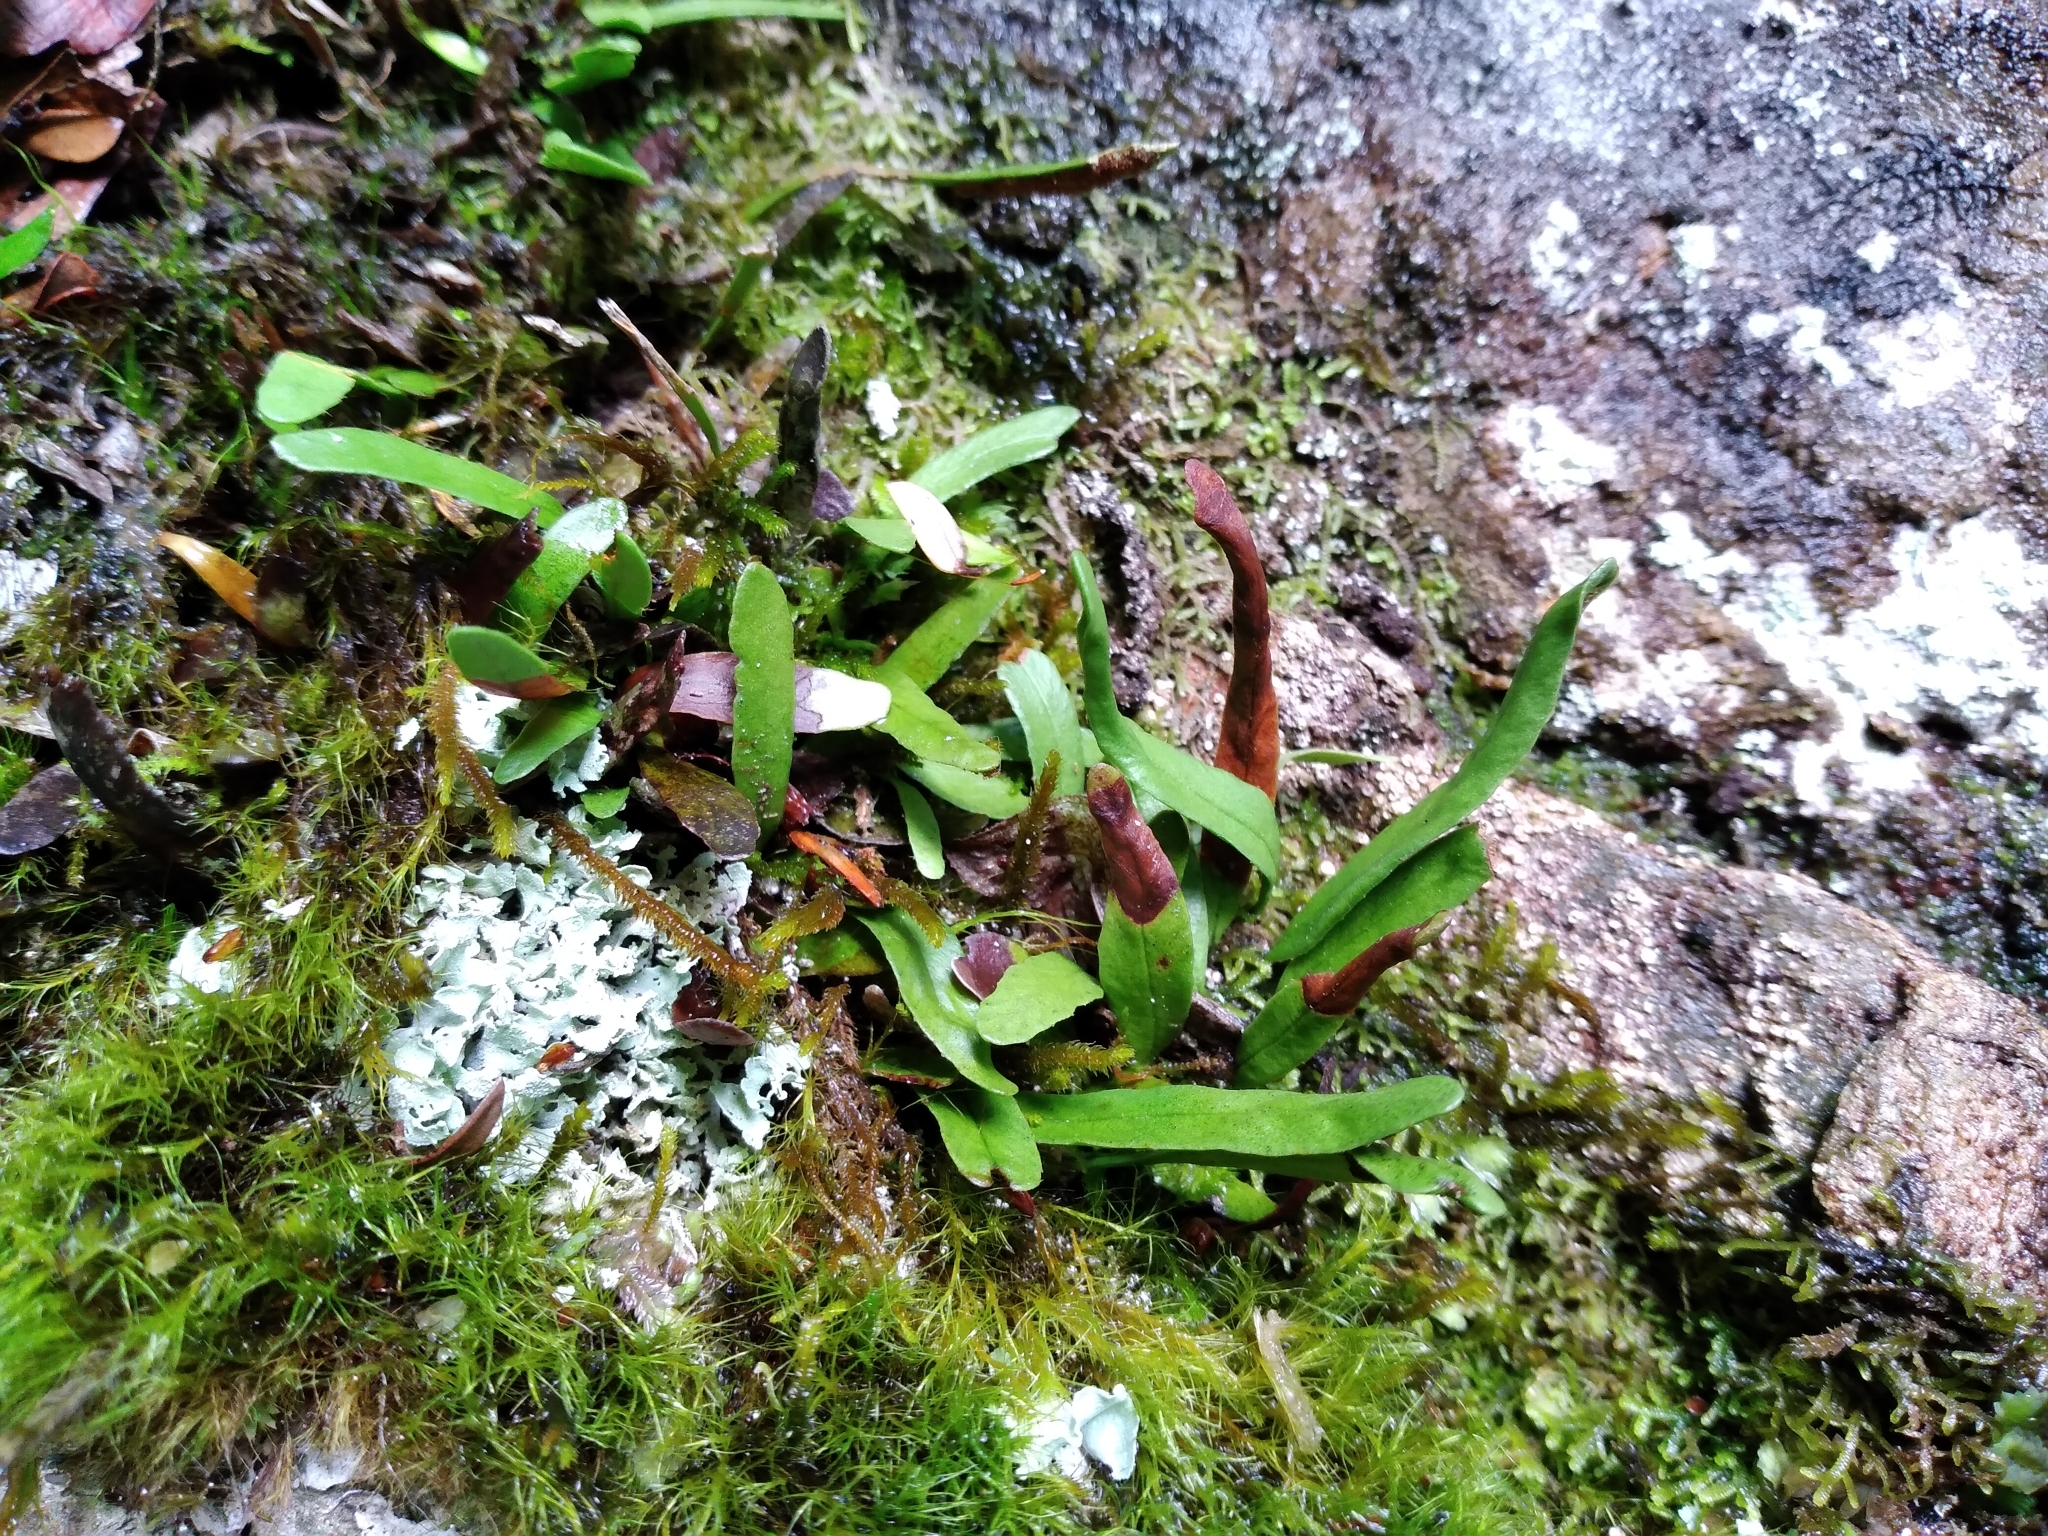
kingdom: Plantae
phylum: Tracheophyta
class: Polypodiopsida
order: Polypodiales
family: Polypodiaceae
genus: Notogrammitis
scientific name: Notogrammitis givenii
